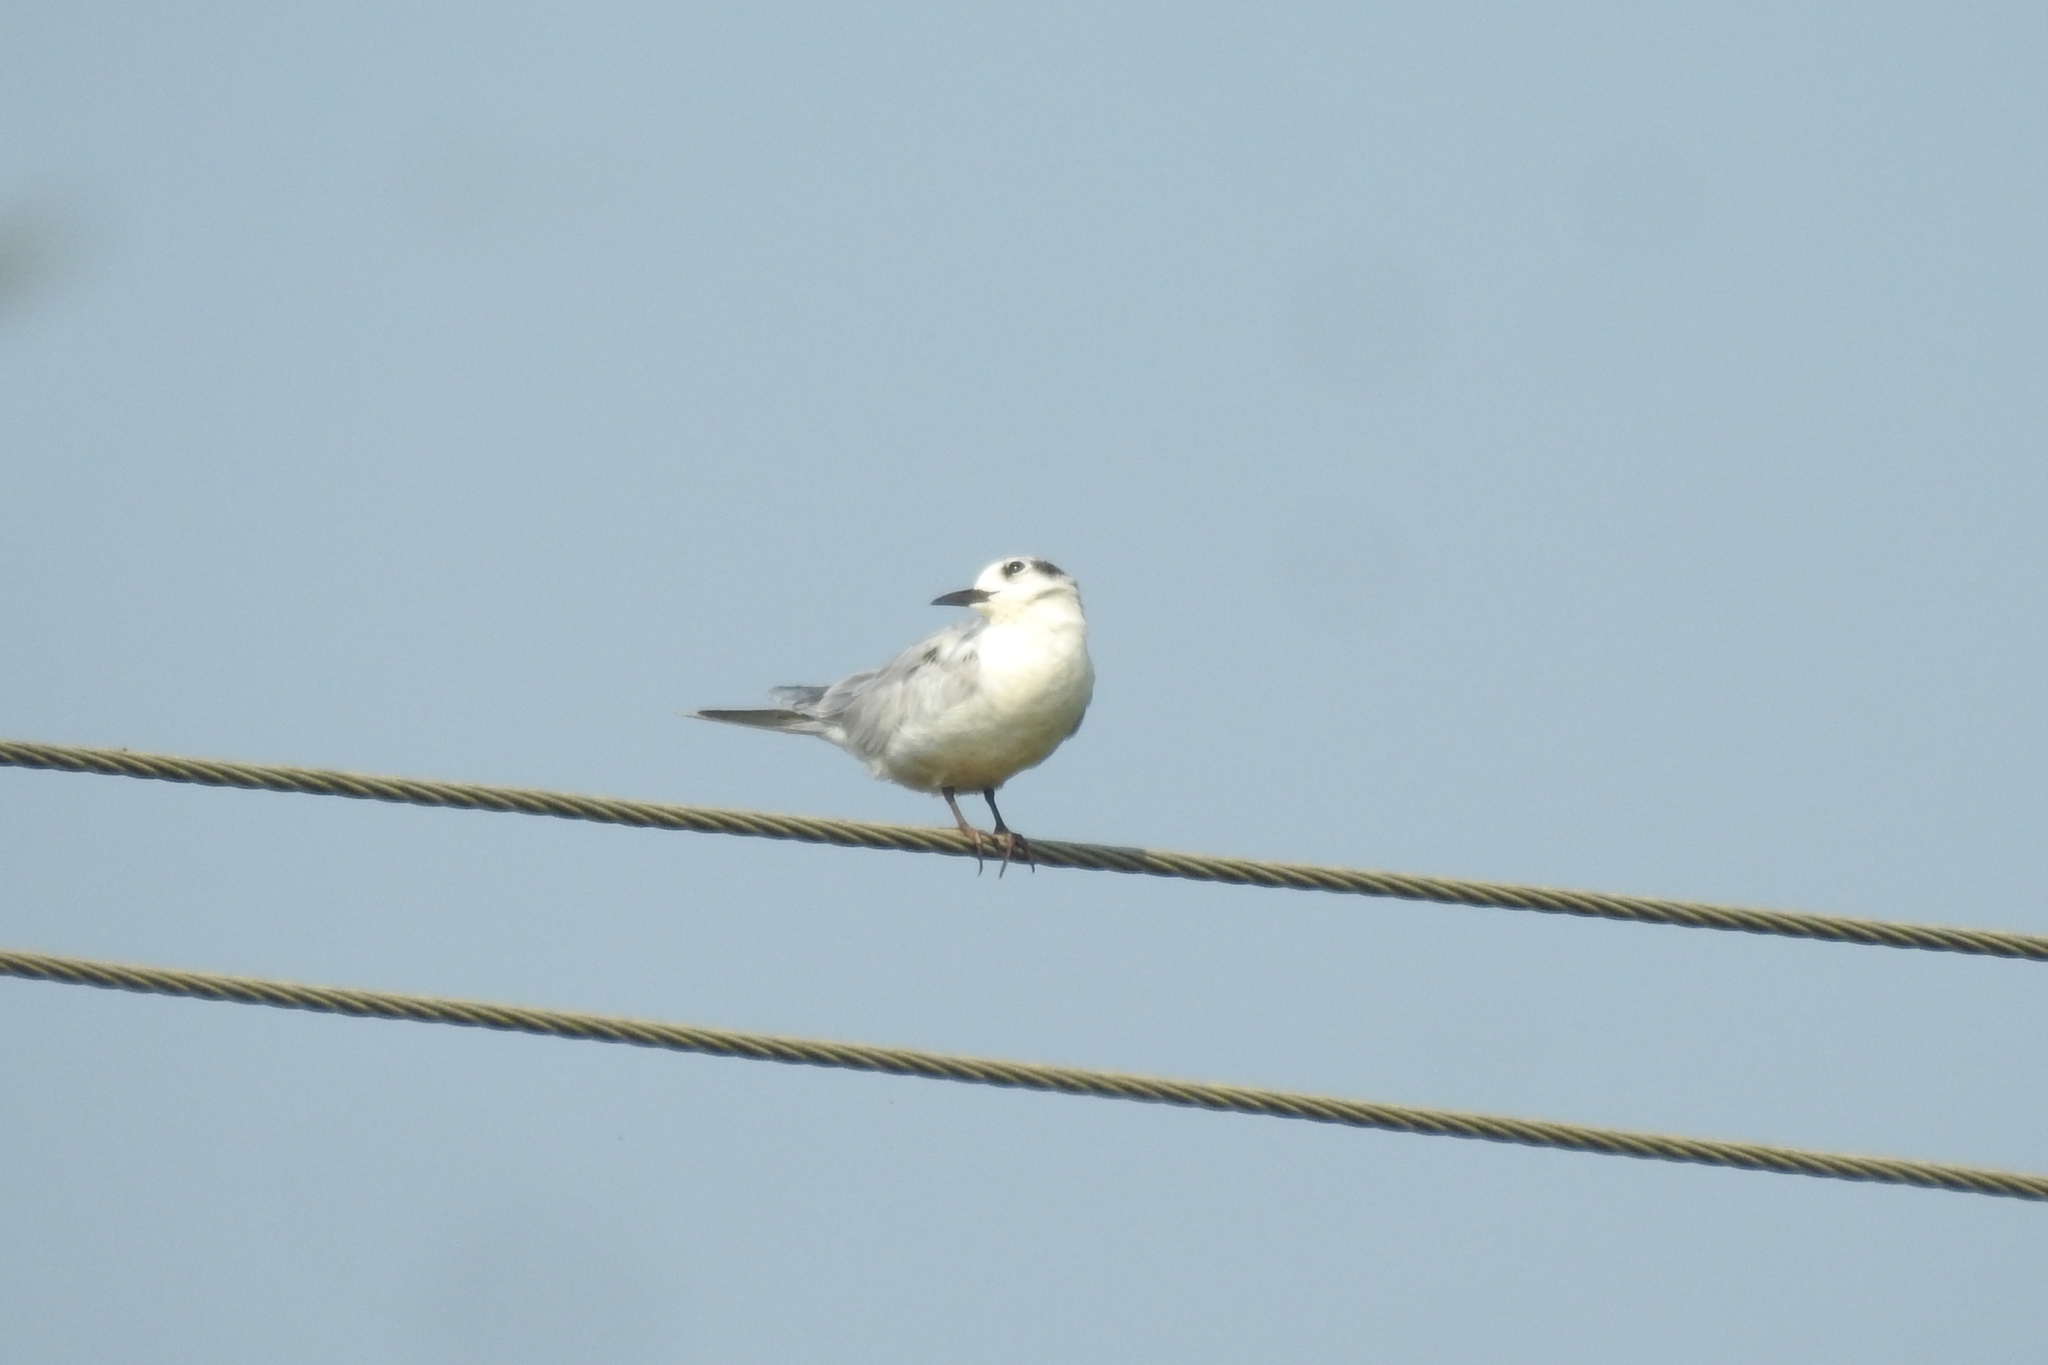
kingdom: Animalia
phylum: Chordata
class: Aves
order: Charadriiformes
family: Laridae
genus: Chlidonias
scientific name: Chlidonias hybrida
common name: Whiskered tern
